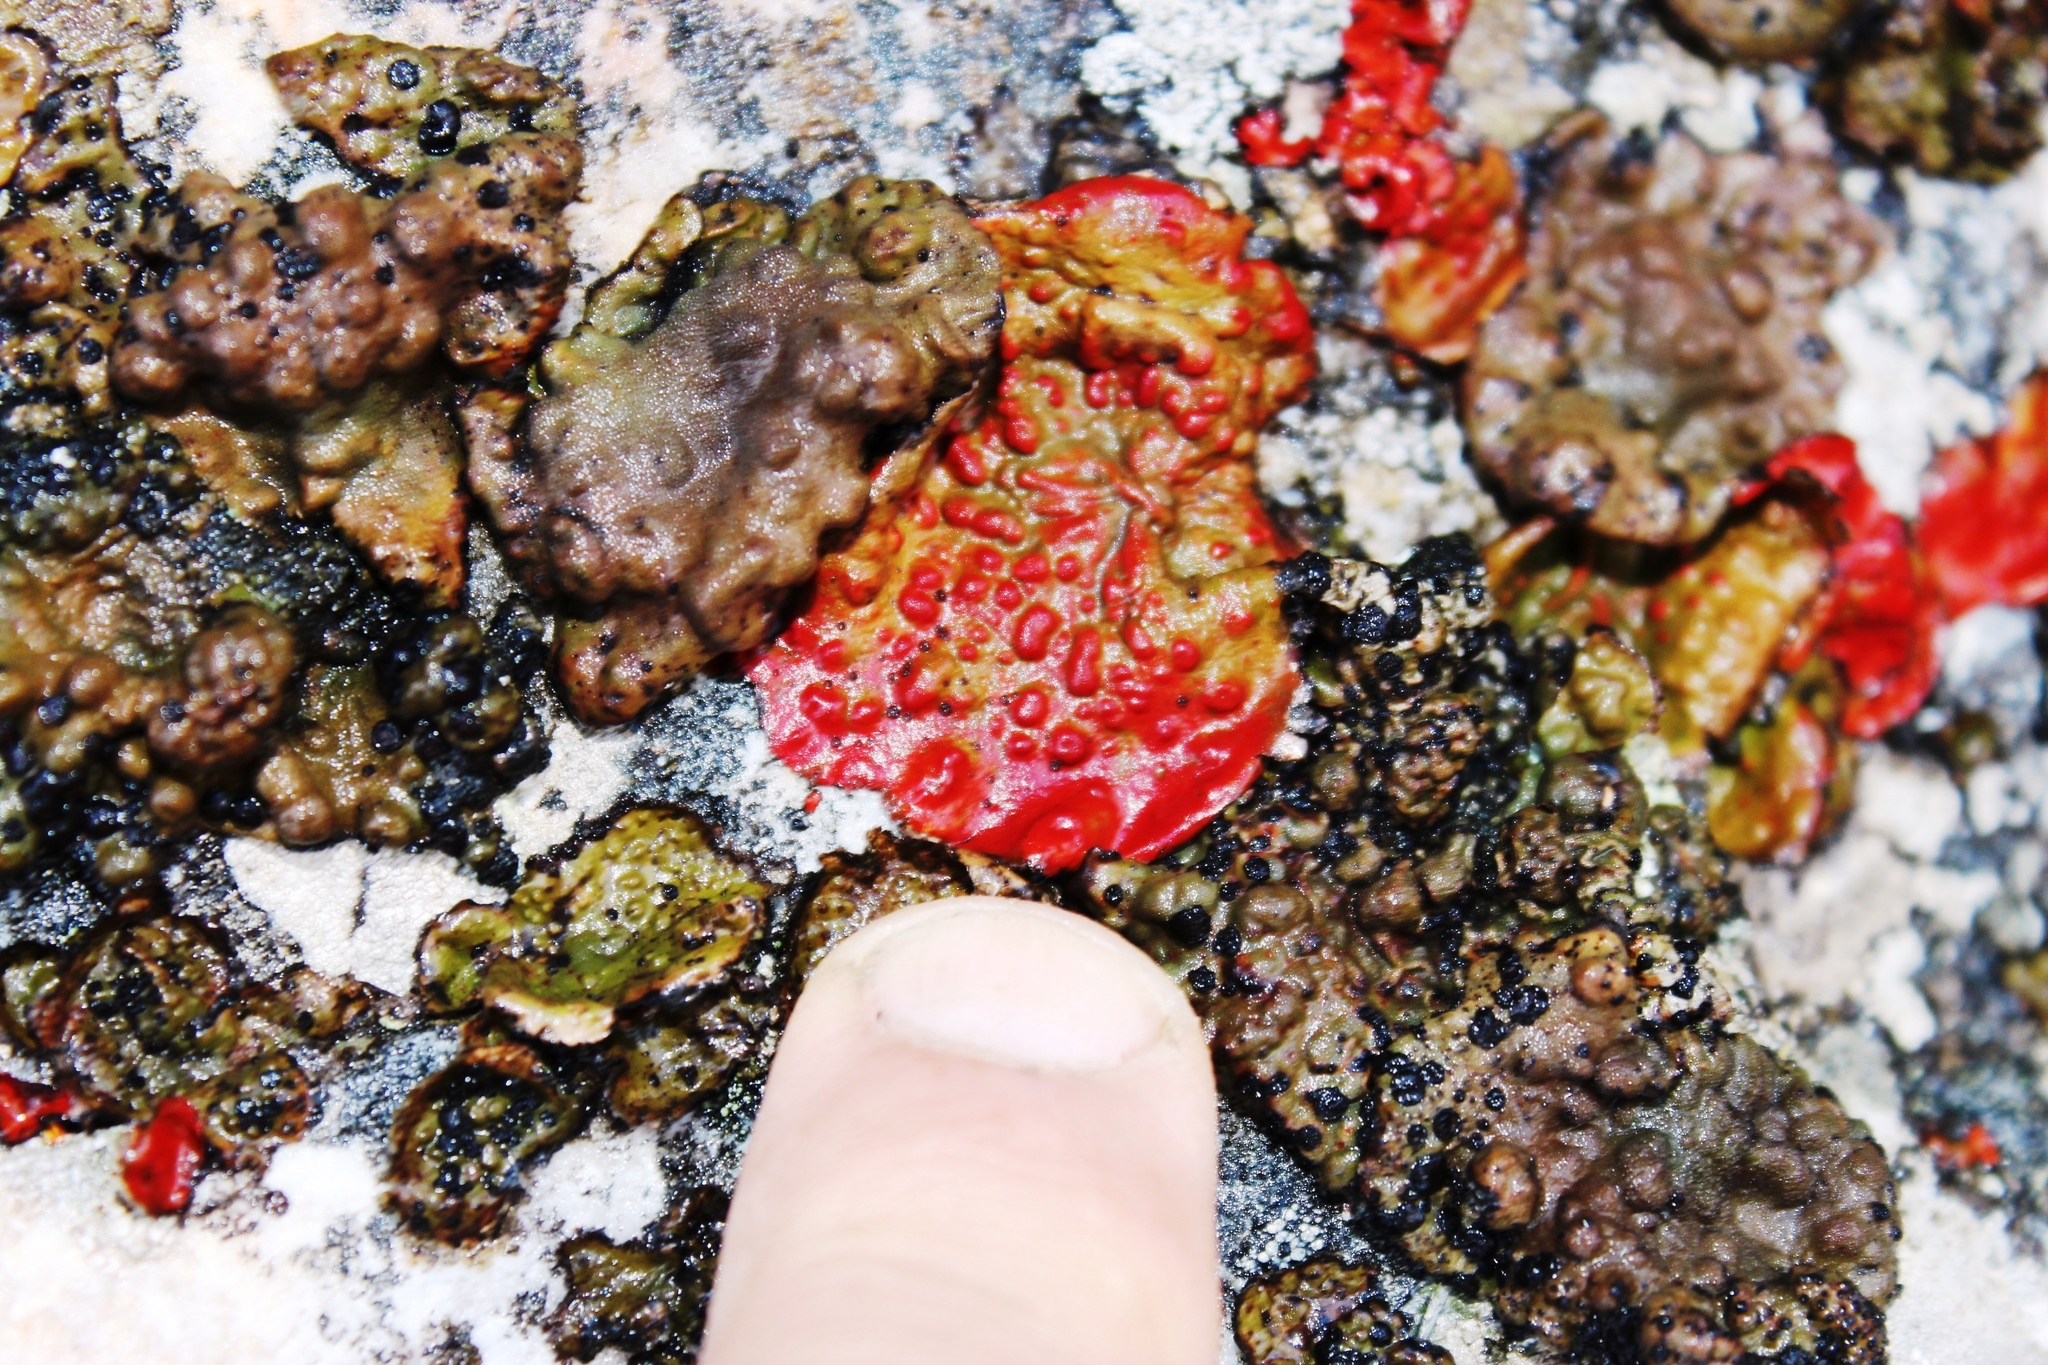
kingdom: Fungi
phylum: Ascomycota
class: Lecanoromycetes
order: Umbilicariales
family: Umbilicariaceae
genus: Lasallia
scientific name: Lasallia rubiginosa
